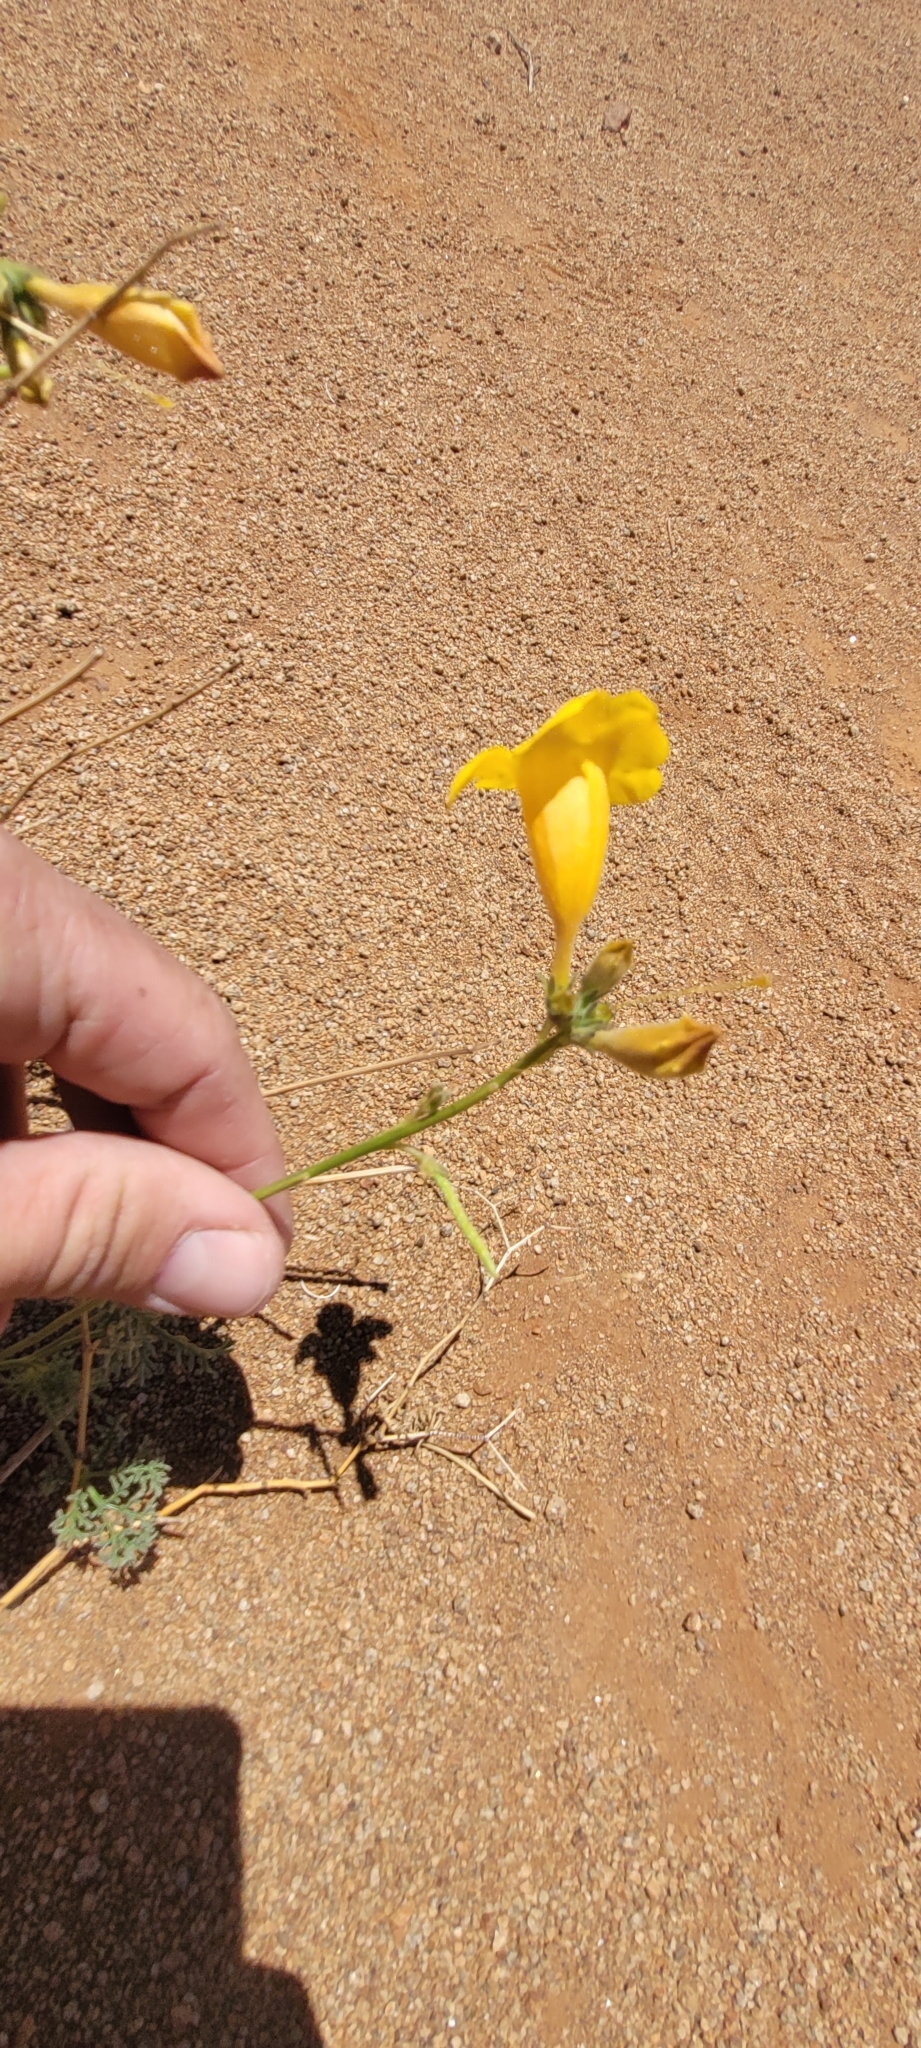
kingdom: Plantae
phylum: Tracheophyta
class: Magnoliopsida
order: Lamiales
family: Bignoniaceae
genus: Argylia
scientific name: Argylia radiata
